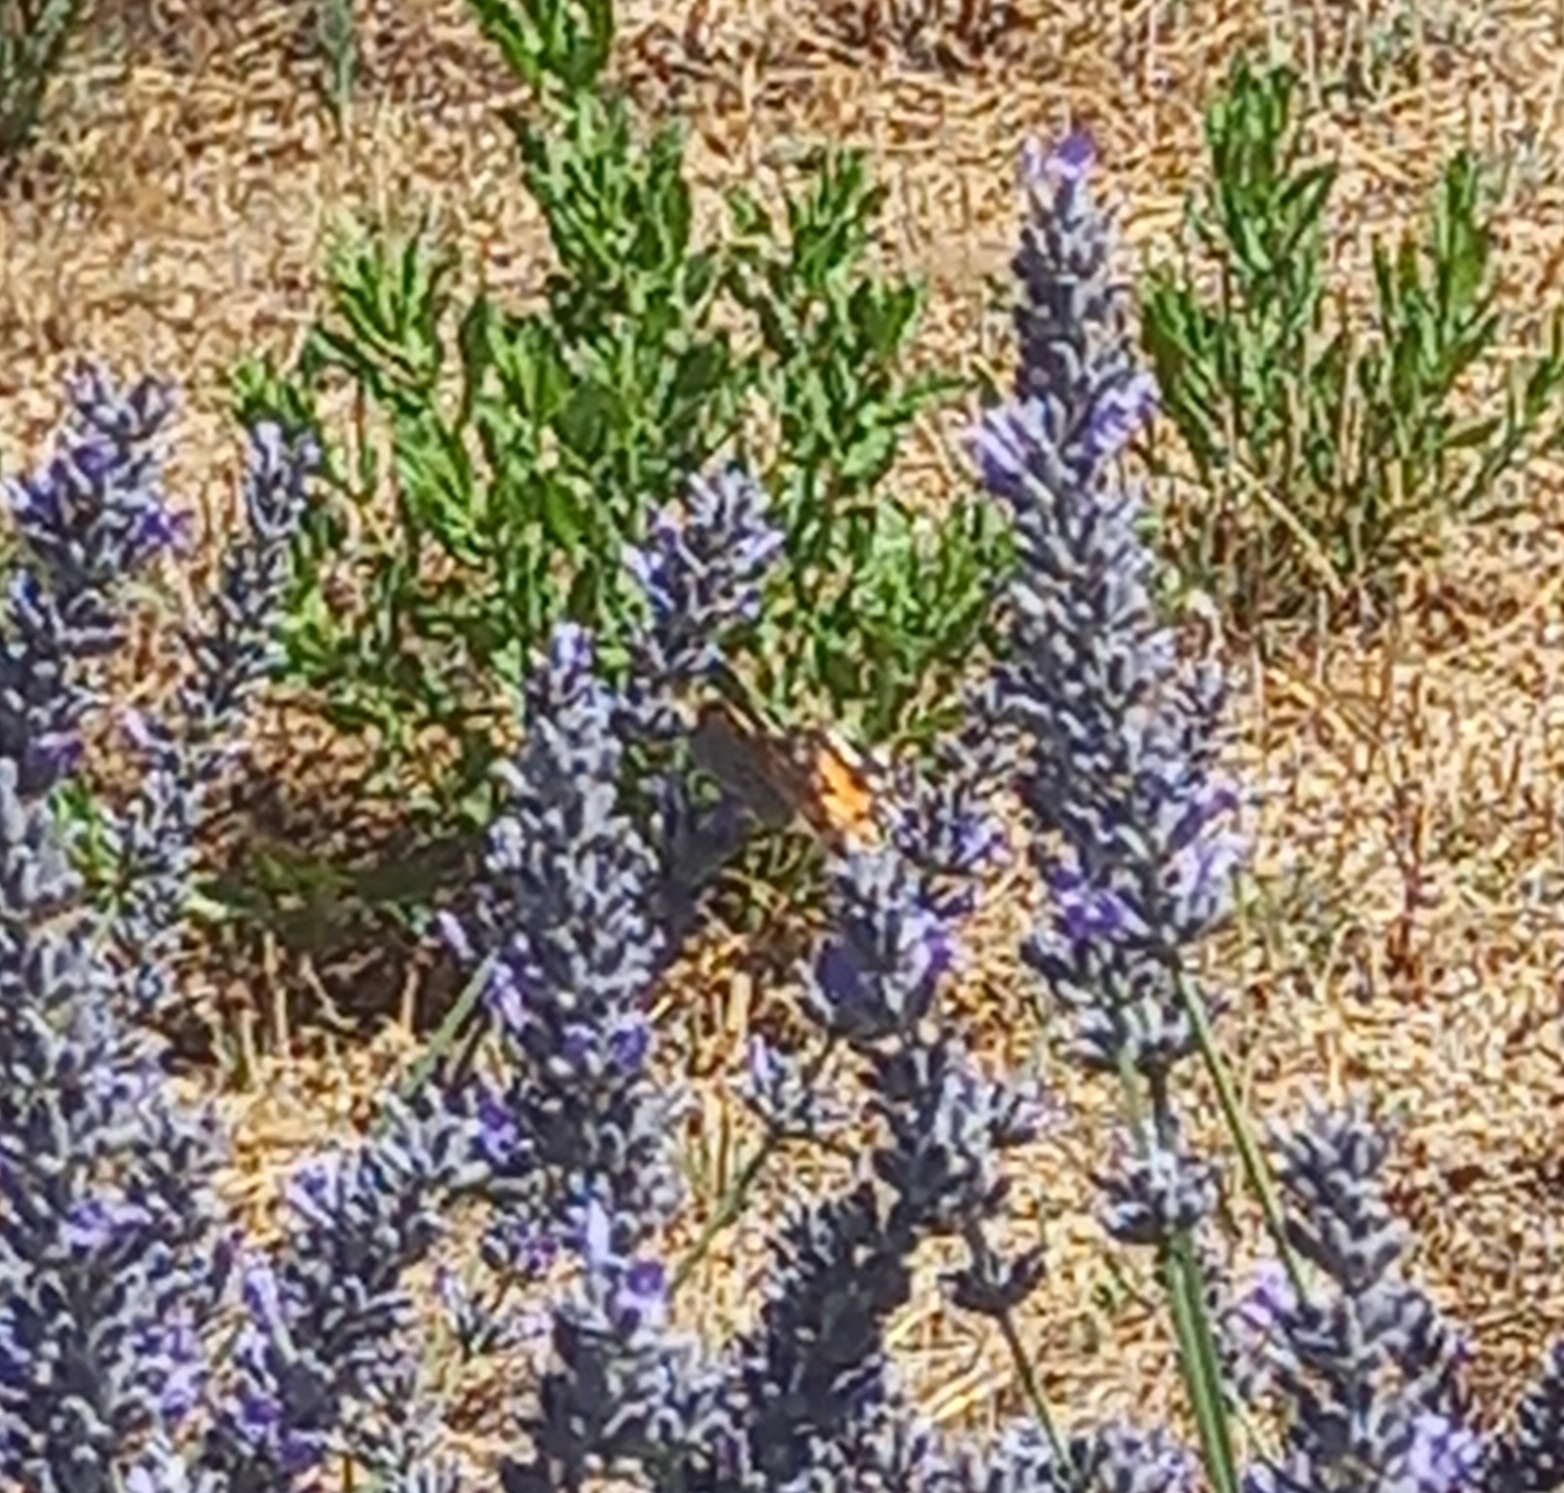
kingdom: Animalia
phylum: Arthropoda
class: Insecta
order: Lepidoptera
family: Nymphalidae
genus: Vanessa
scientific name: Vanessa cardui
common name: Painted lady
